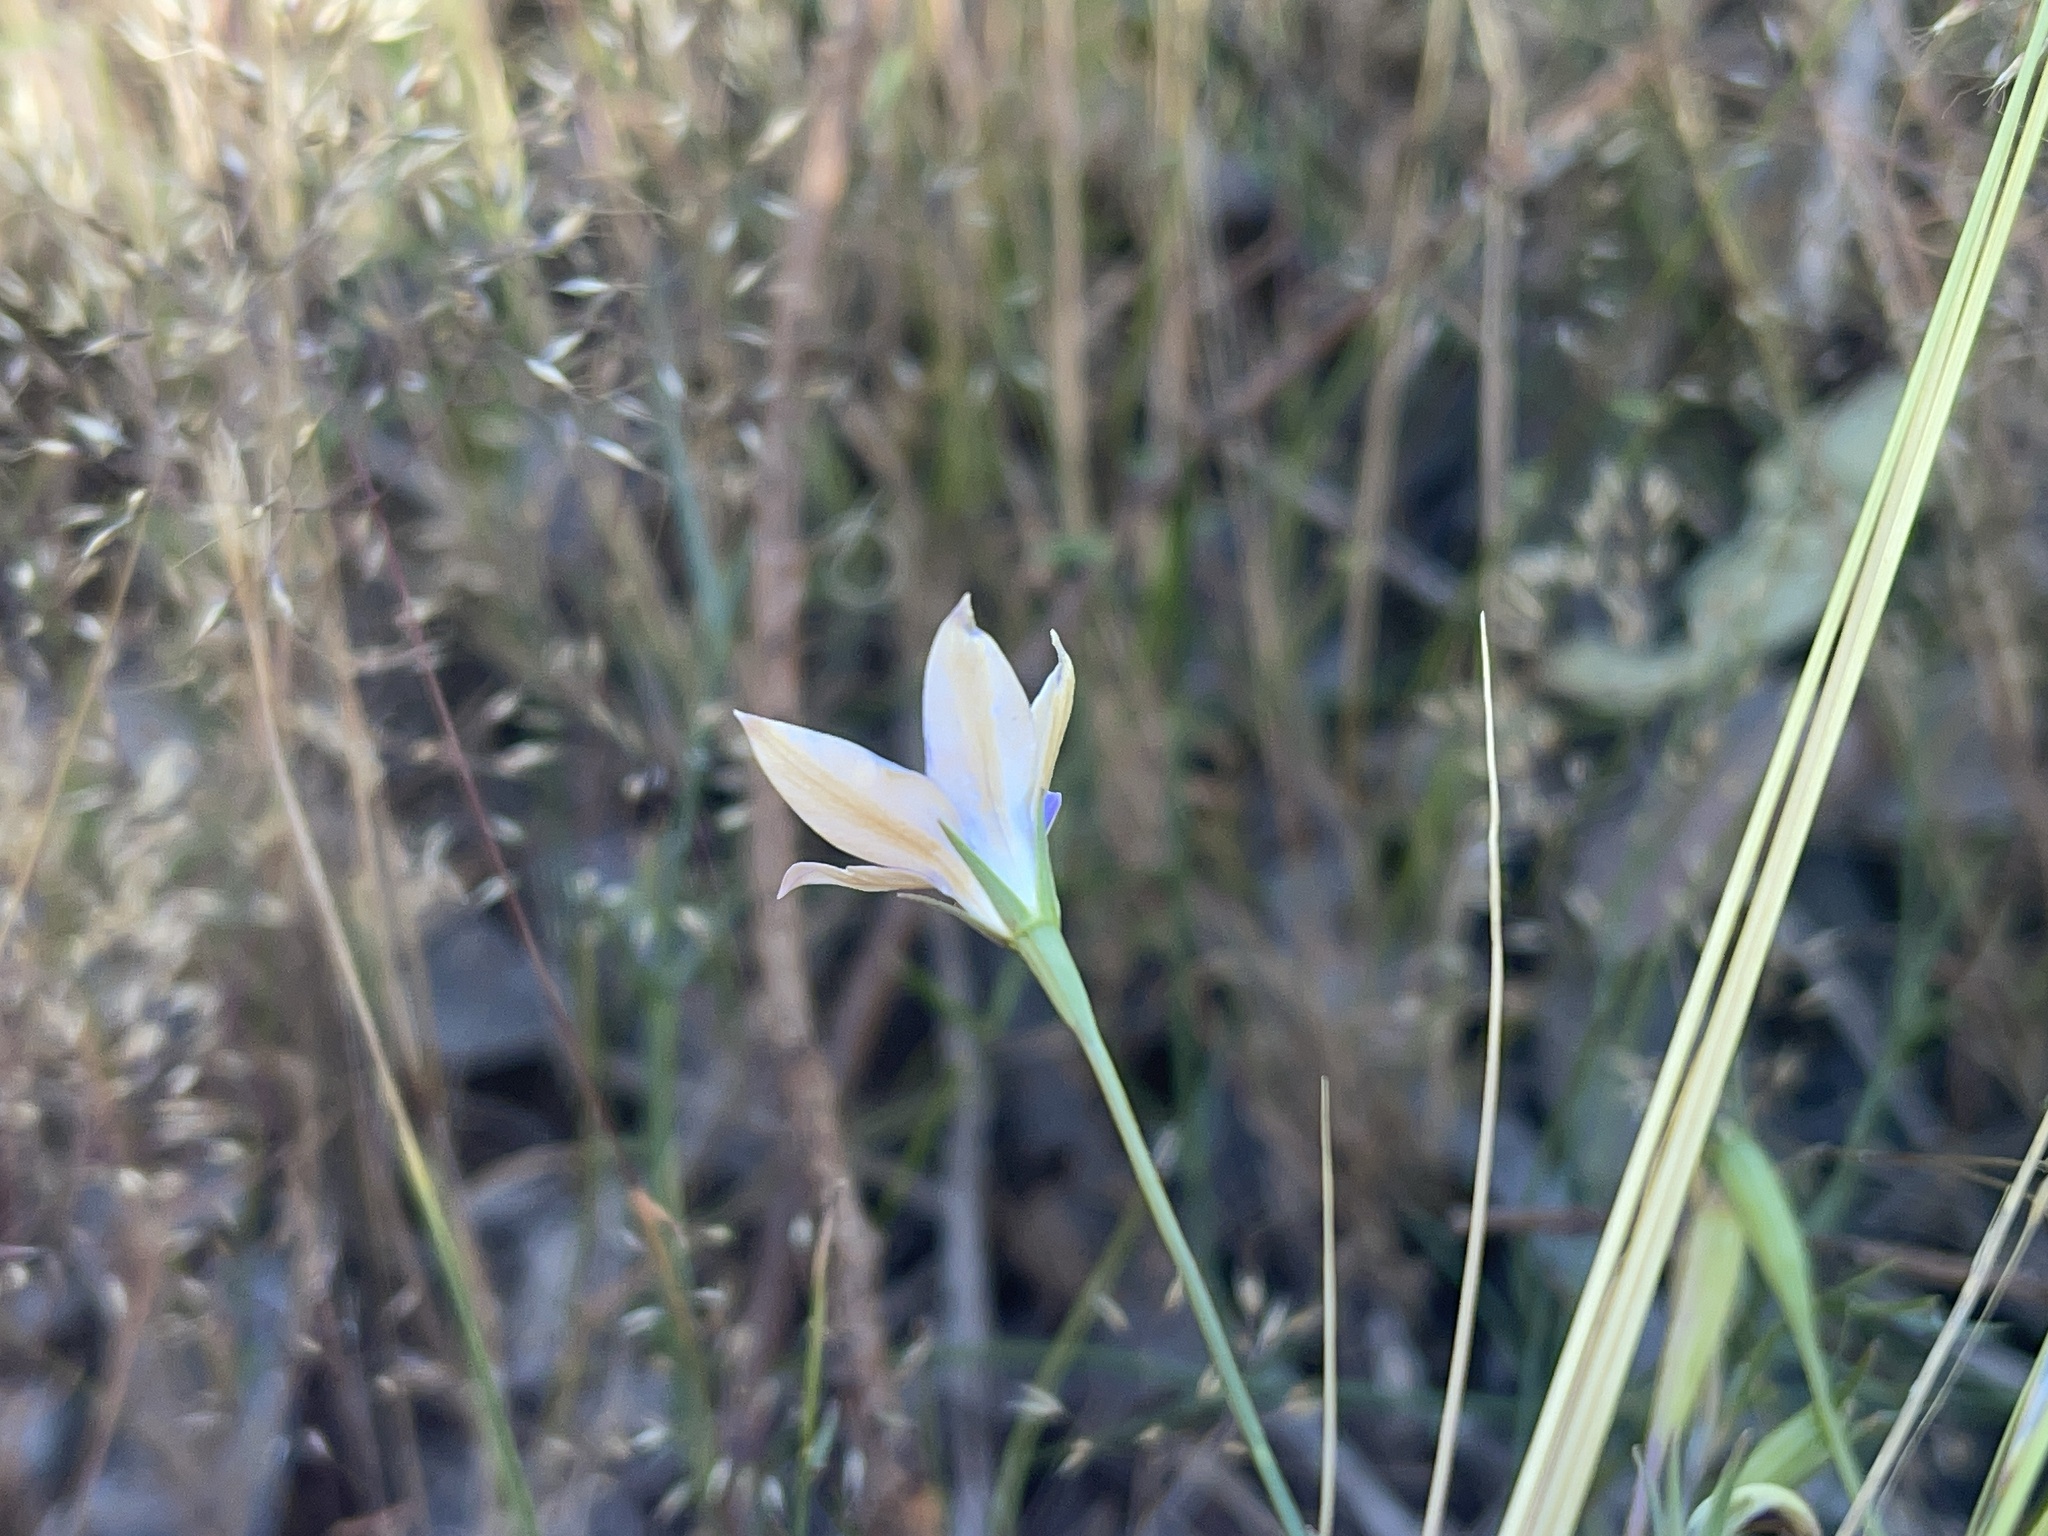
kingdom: Plantae
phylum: Tracheophyta
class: Magnoliopsida
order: Asterales
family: Campanulaceae
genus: Wahlenbergia
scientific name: Wahlenbergia luteola
